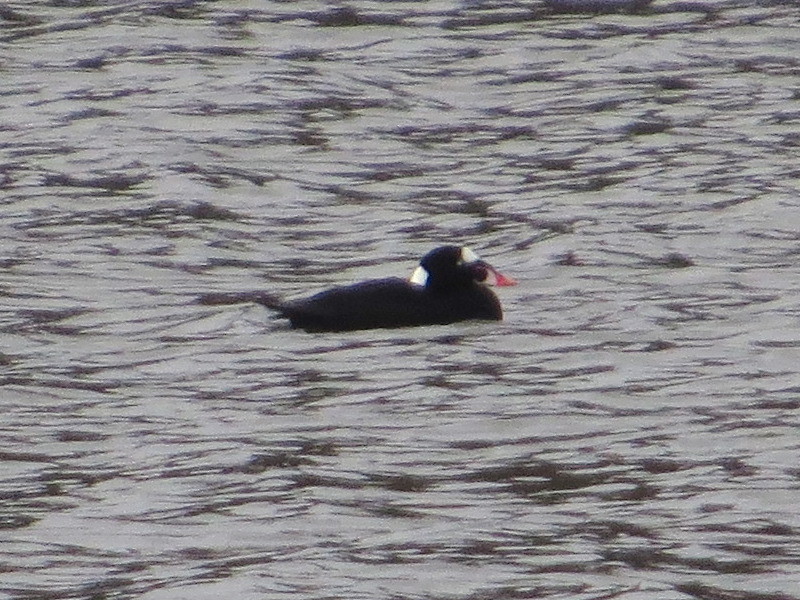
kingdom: Animalia
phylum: Chordata
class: Aves
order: Anseriformes
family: Anatidae
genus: Melanitta
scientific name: Melanitta perspicillata
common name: Surf scoter
